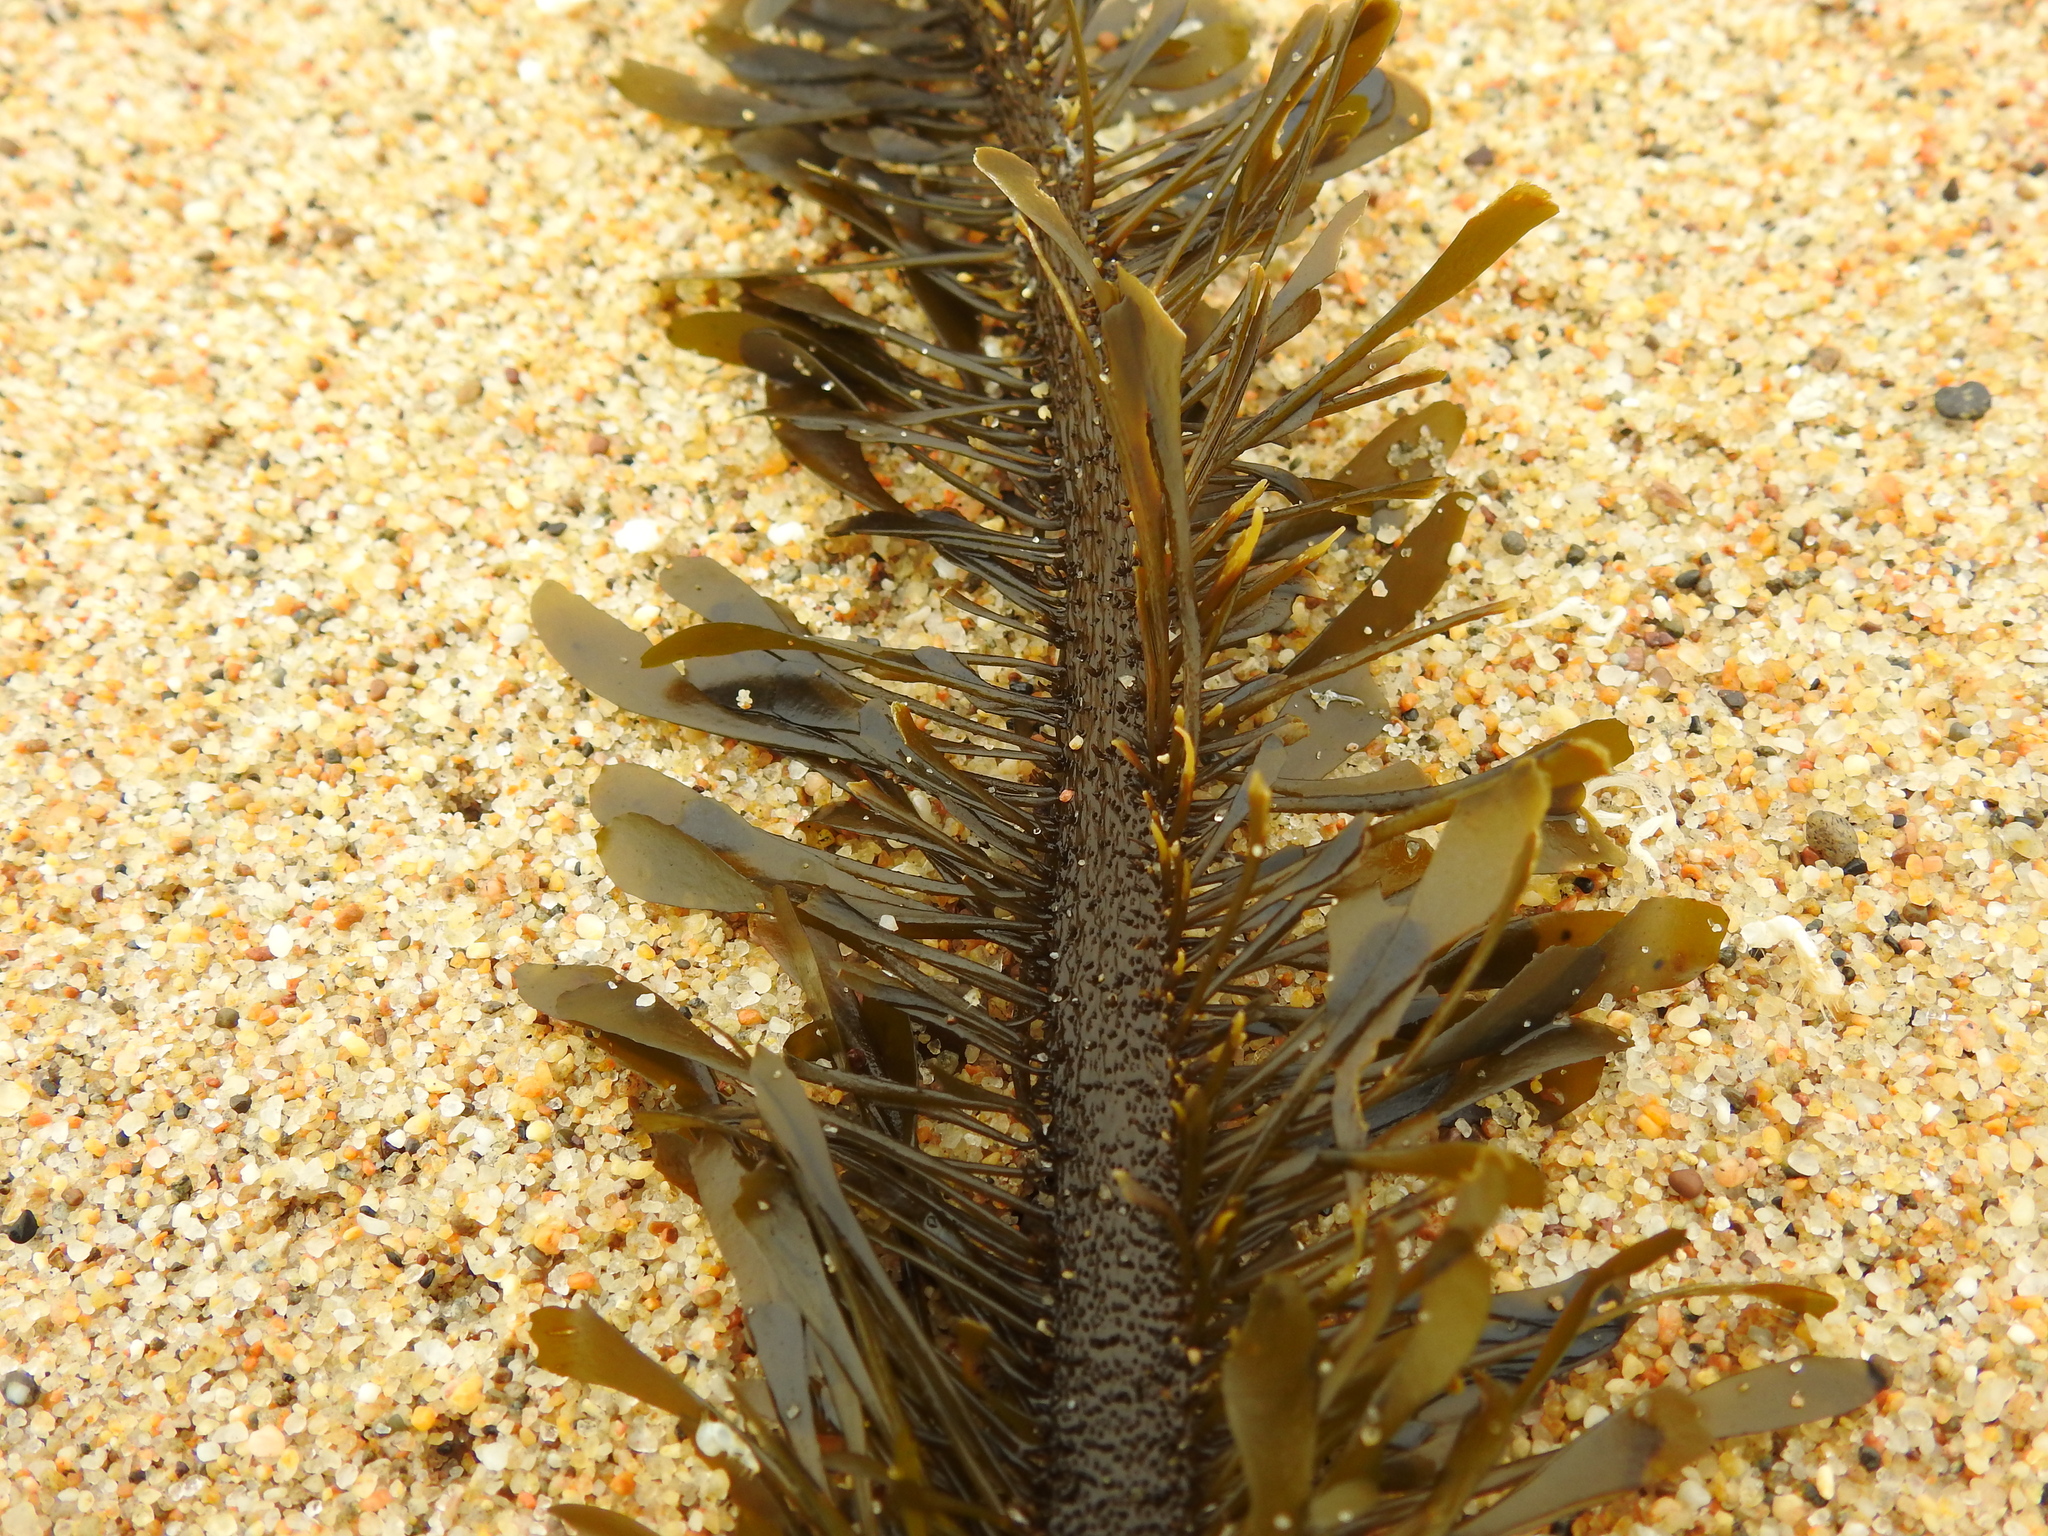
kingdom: Chromista
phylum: Ochrophyta
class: Phaeophyceae
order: Laminariales
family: Lessoniaceae
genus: Egregia
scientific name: Egregia menziesii
